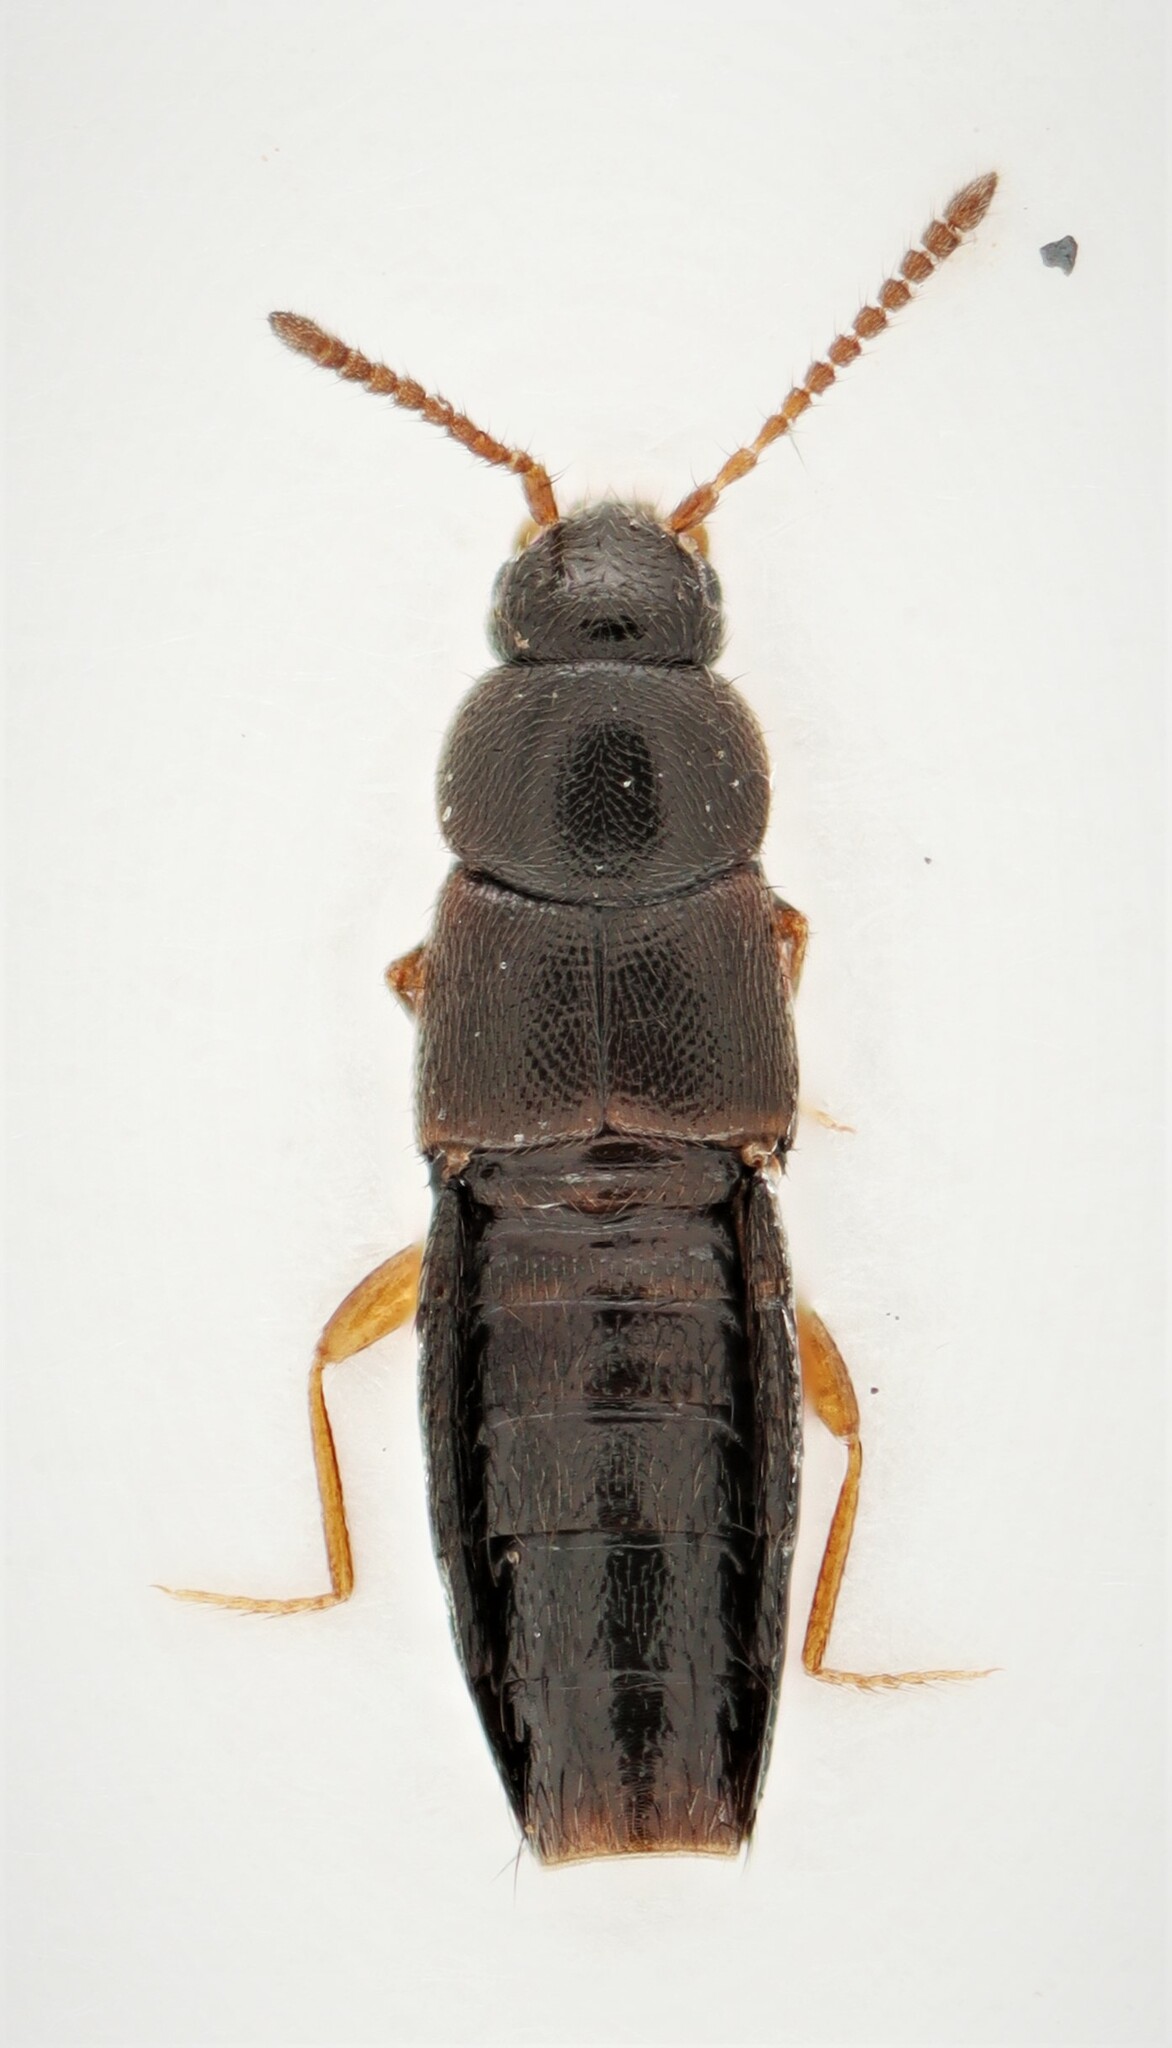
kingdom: Animalia
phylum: Arthropoda
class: Insecta
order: Coleoptera
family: Staphylinidae
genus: Mocyta
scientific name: Mocyta sphagnorum
